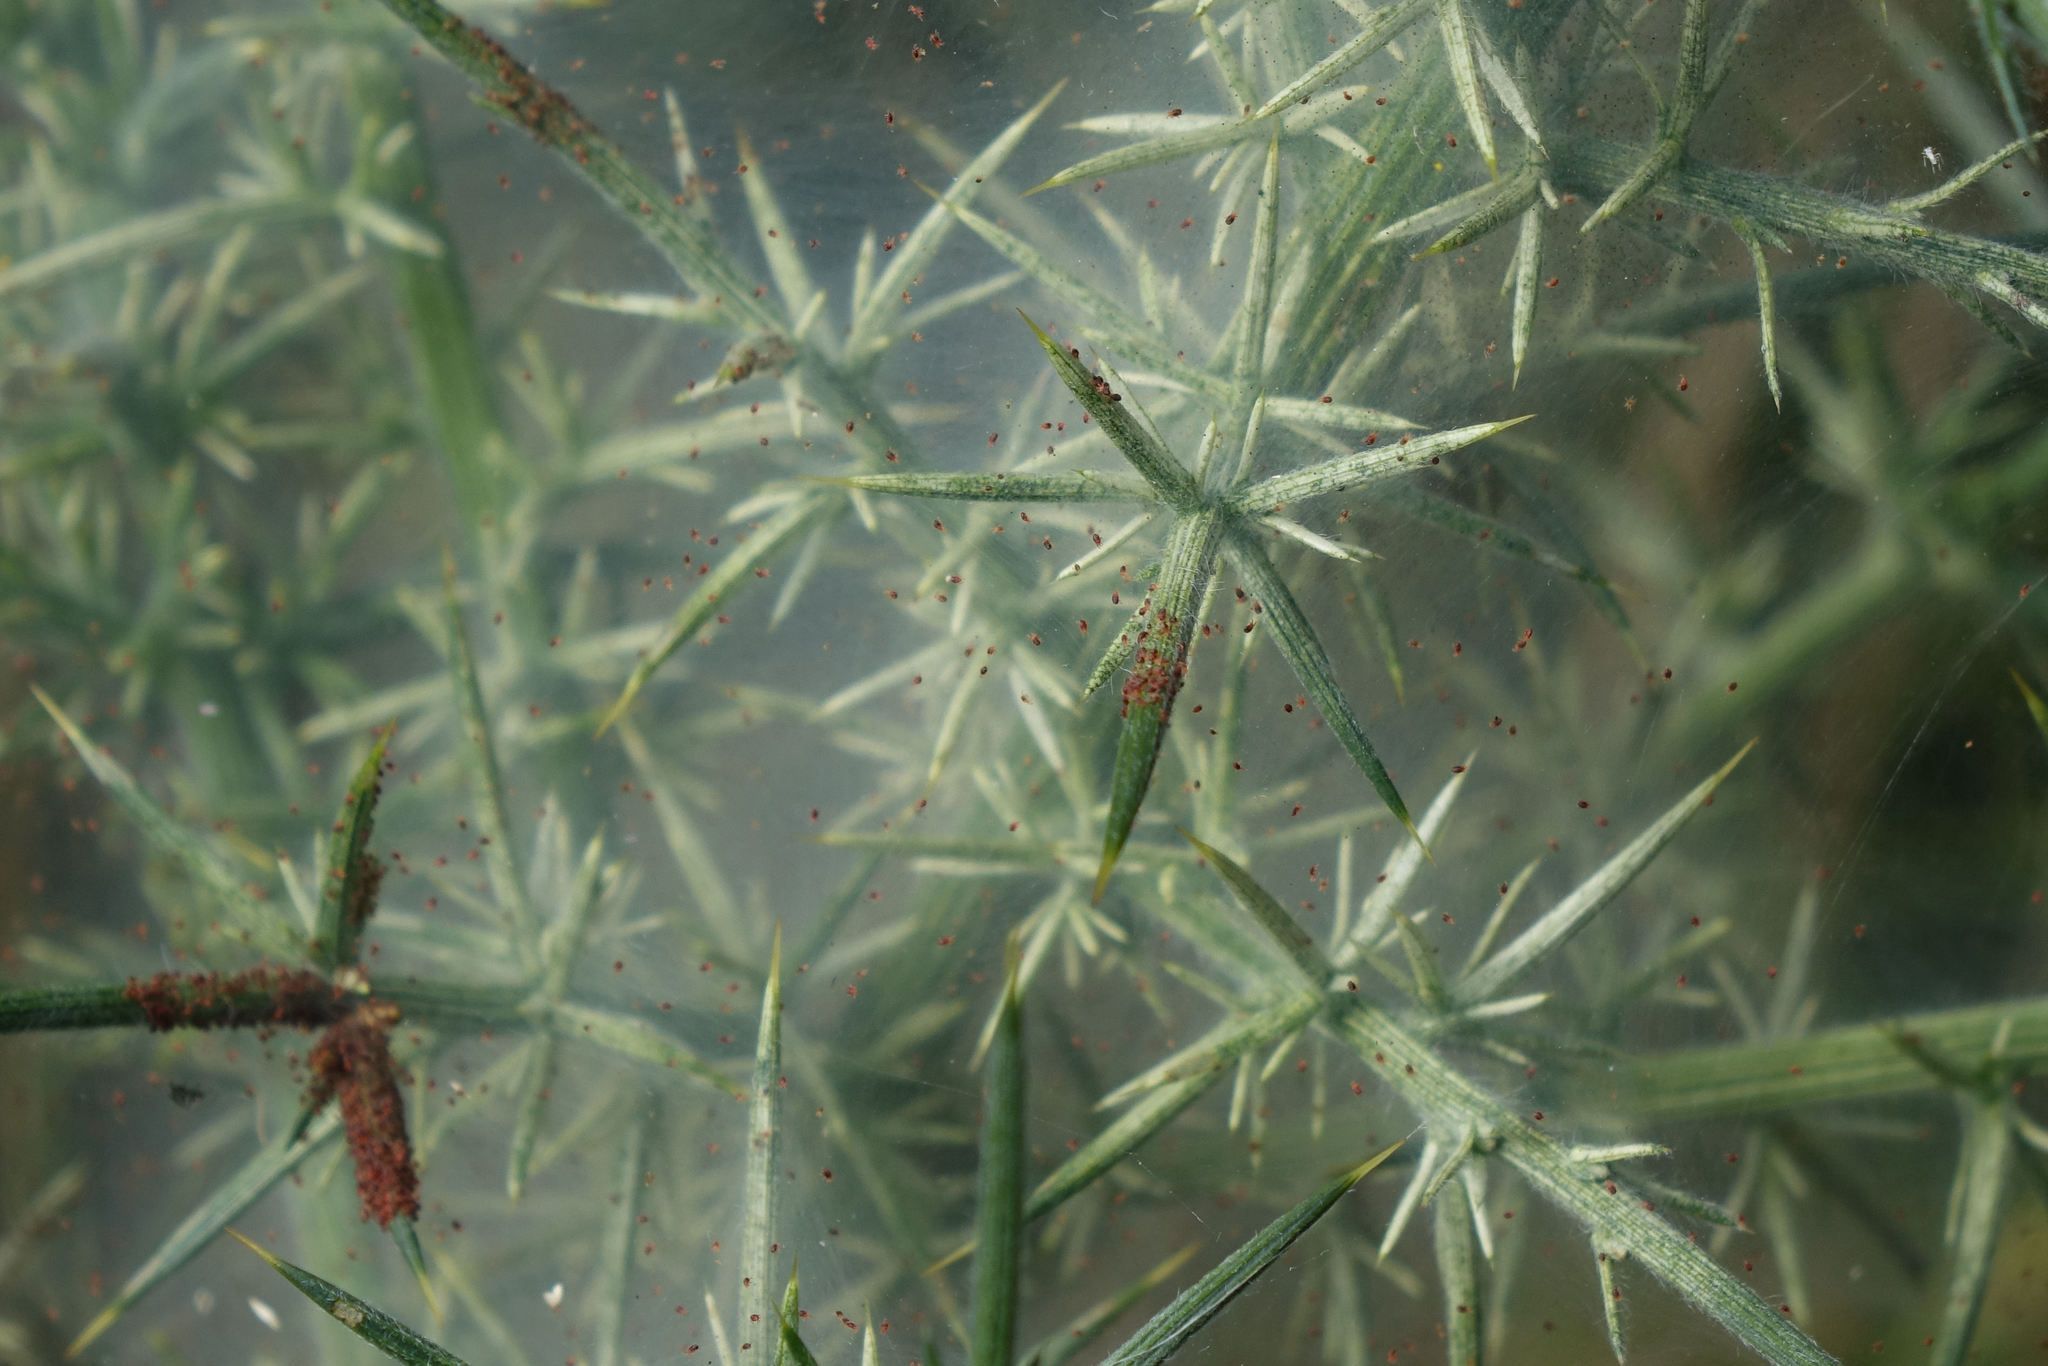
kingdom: Animalia
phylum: Arthropoda
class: Arachnida
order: Trombidiformes
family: Tetranychidae
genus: Tetranychus
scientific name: Tetranychus lintearius
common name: Gorse spider mite
